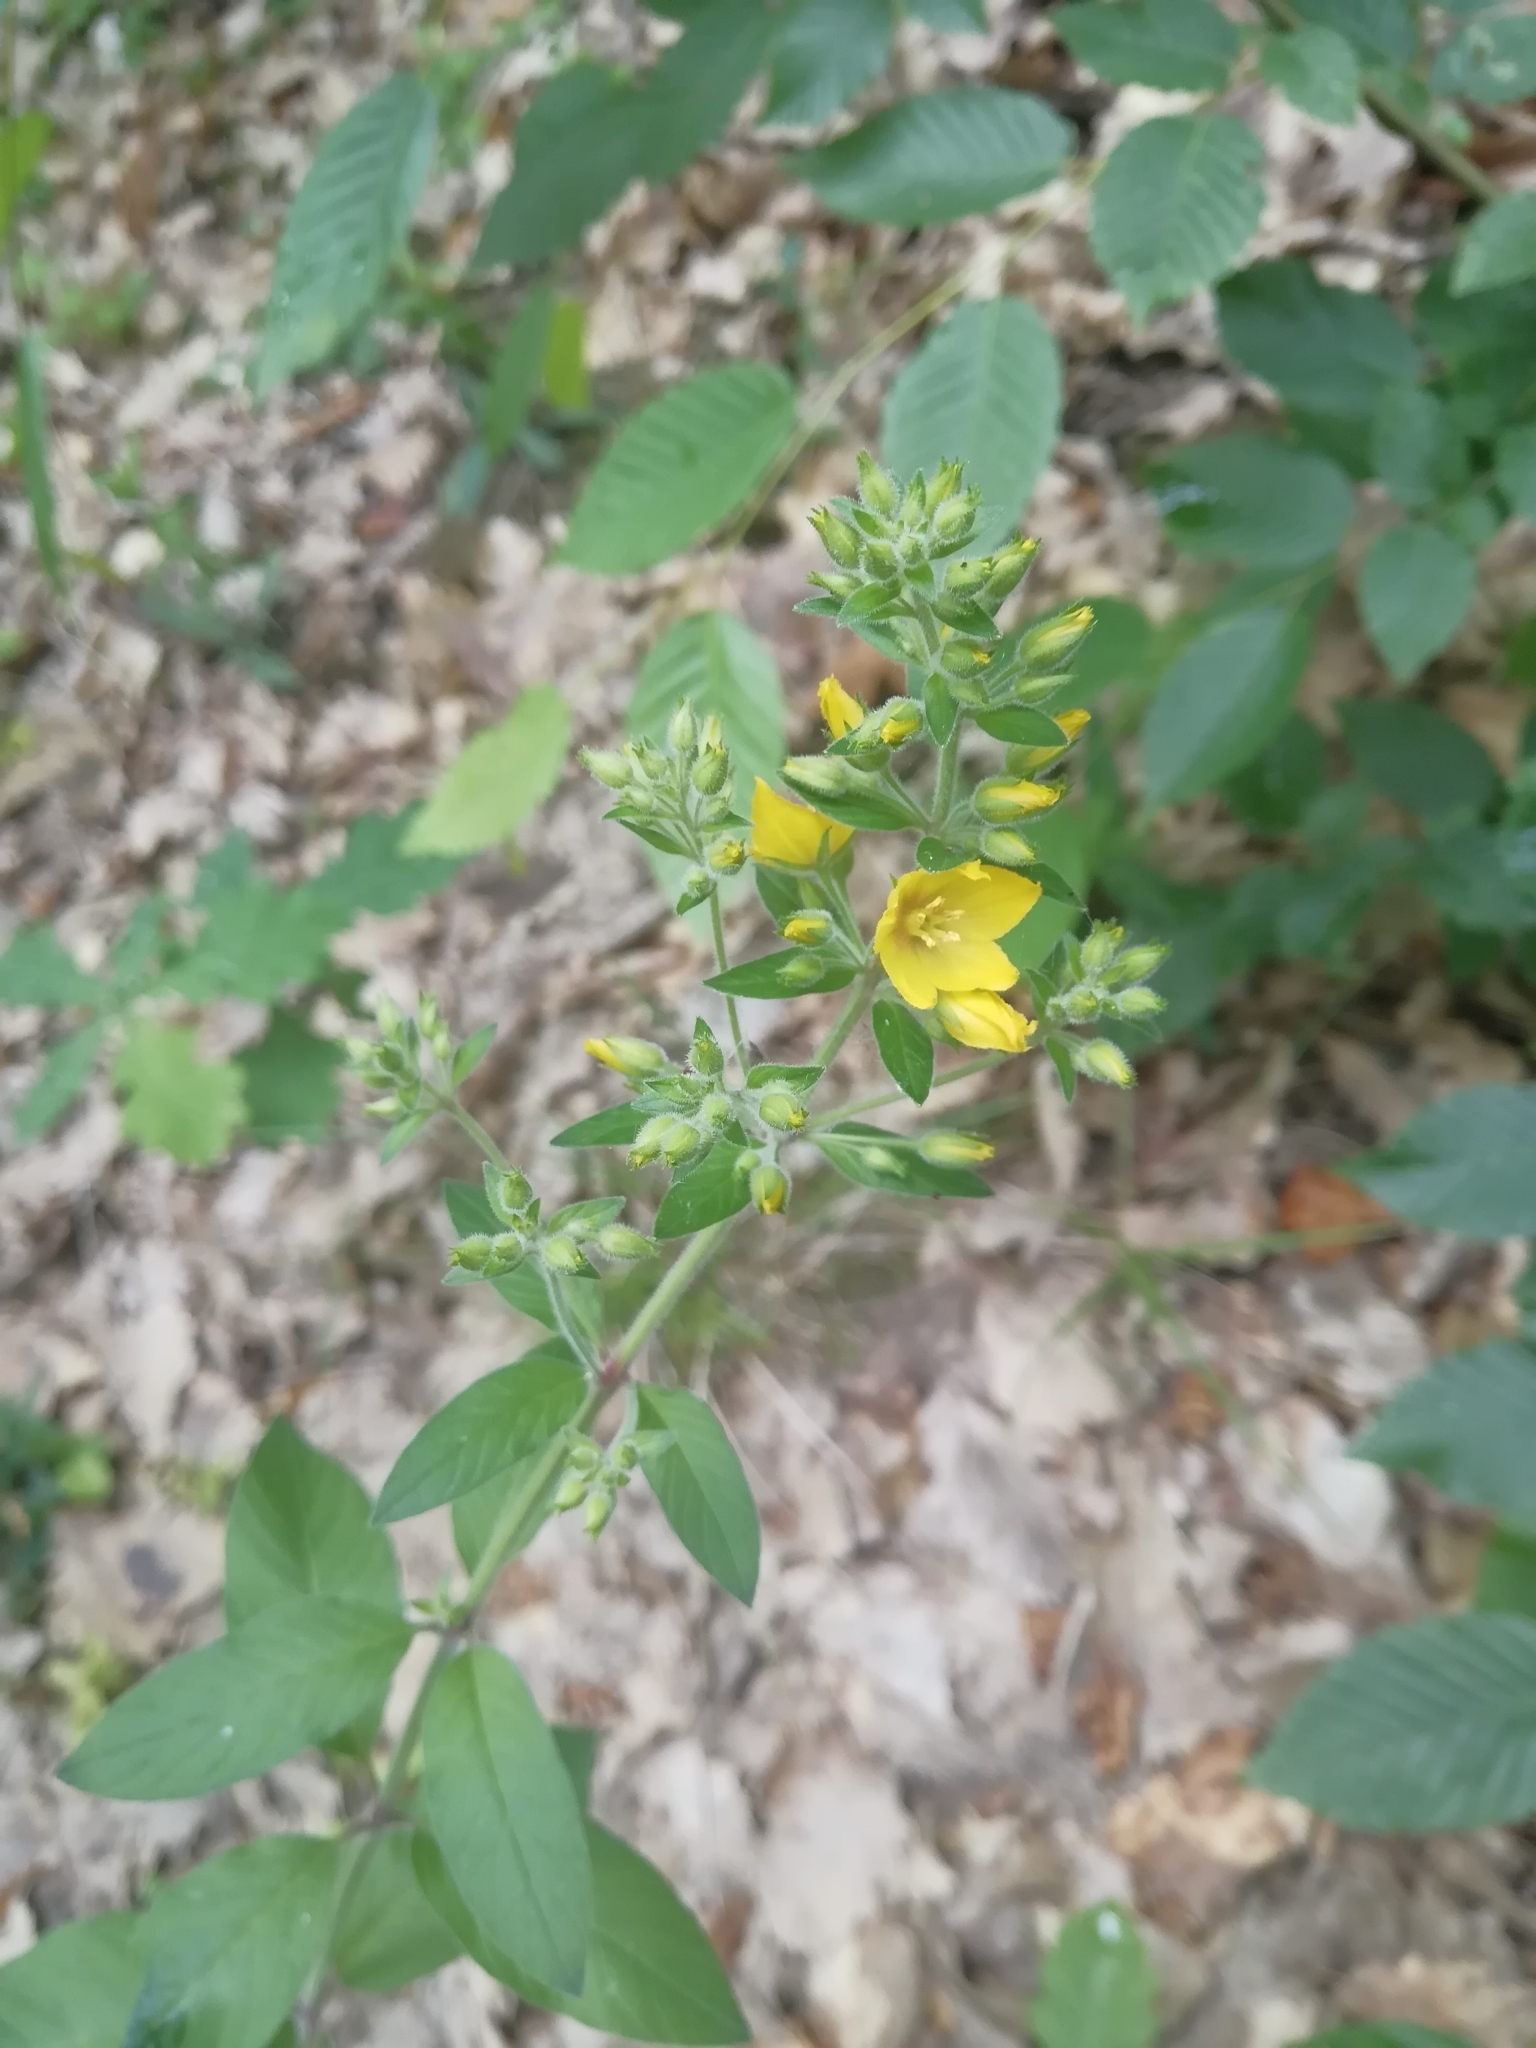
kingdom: Plantae
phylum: Tracheophyta
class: Magnoliopsida
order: Ericales
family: Primulaceae
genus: Lysimachia
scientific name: Lysimachia punctata
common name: Dotted loosestrife
